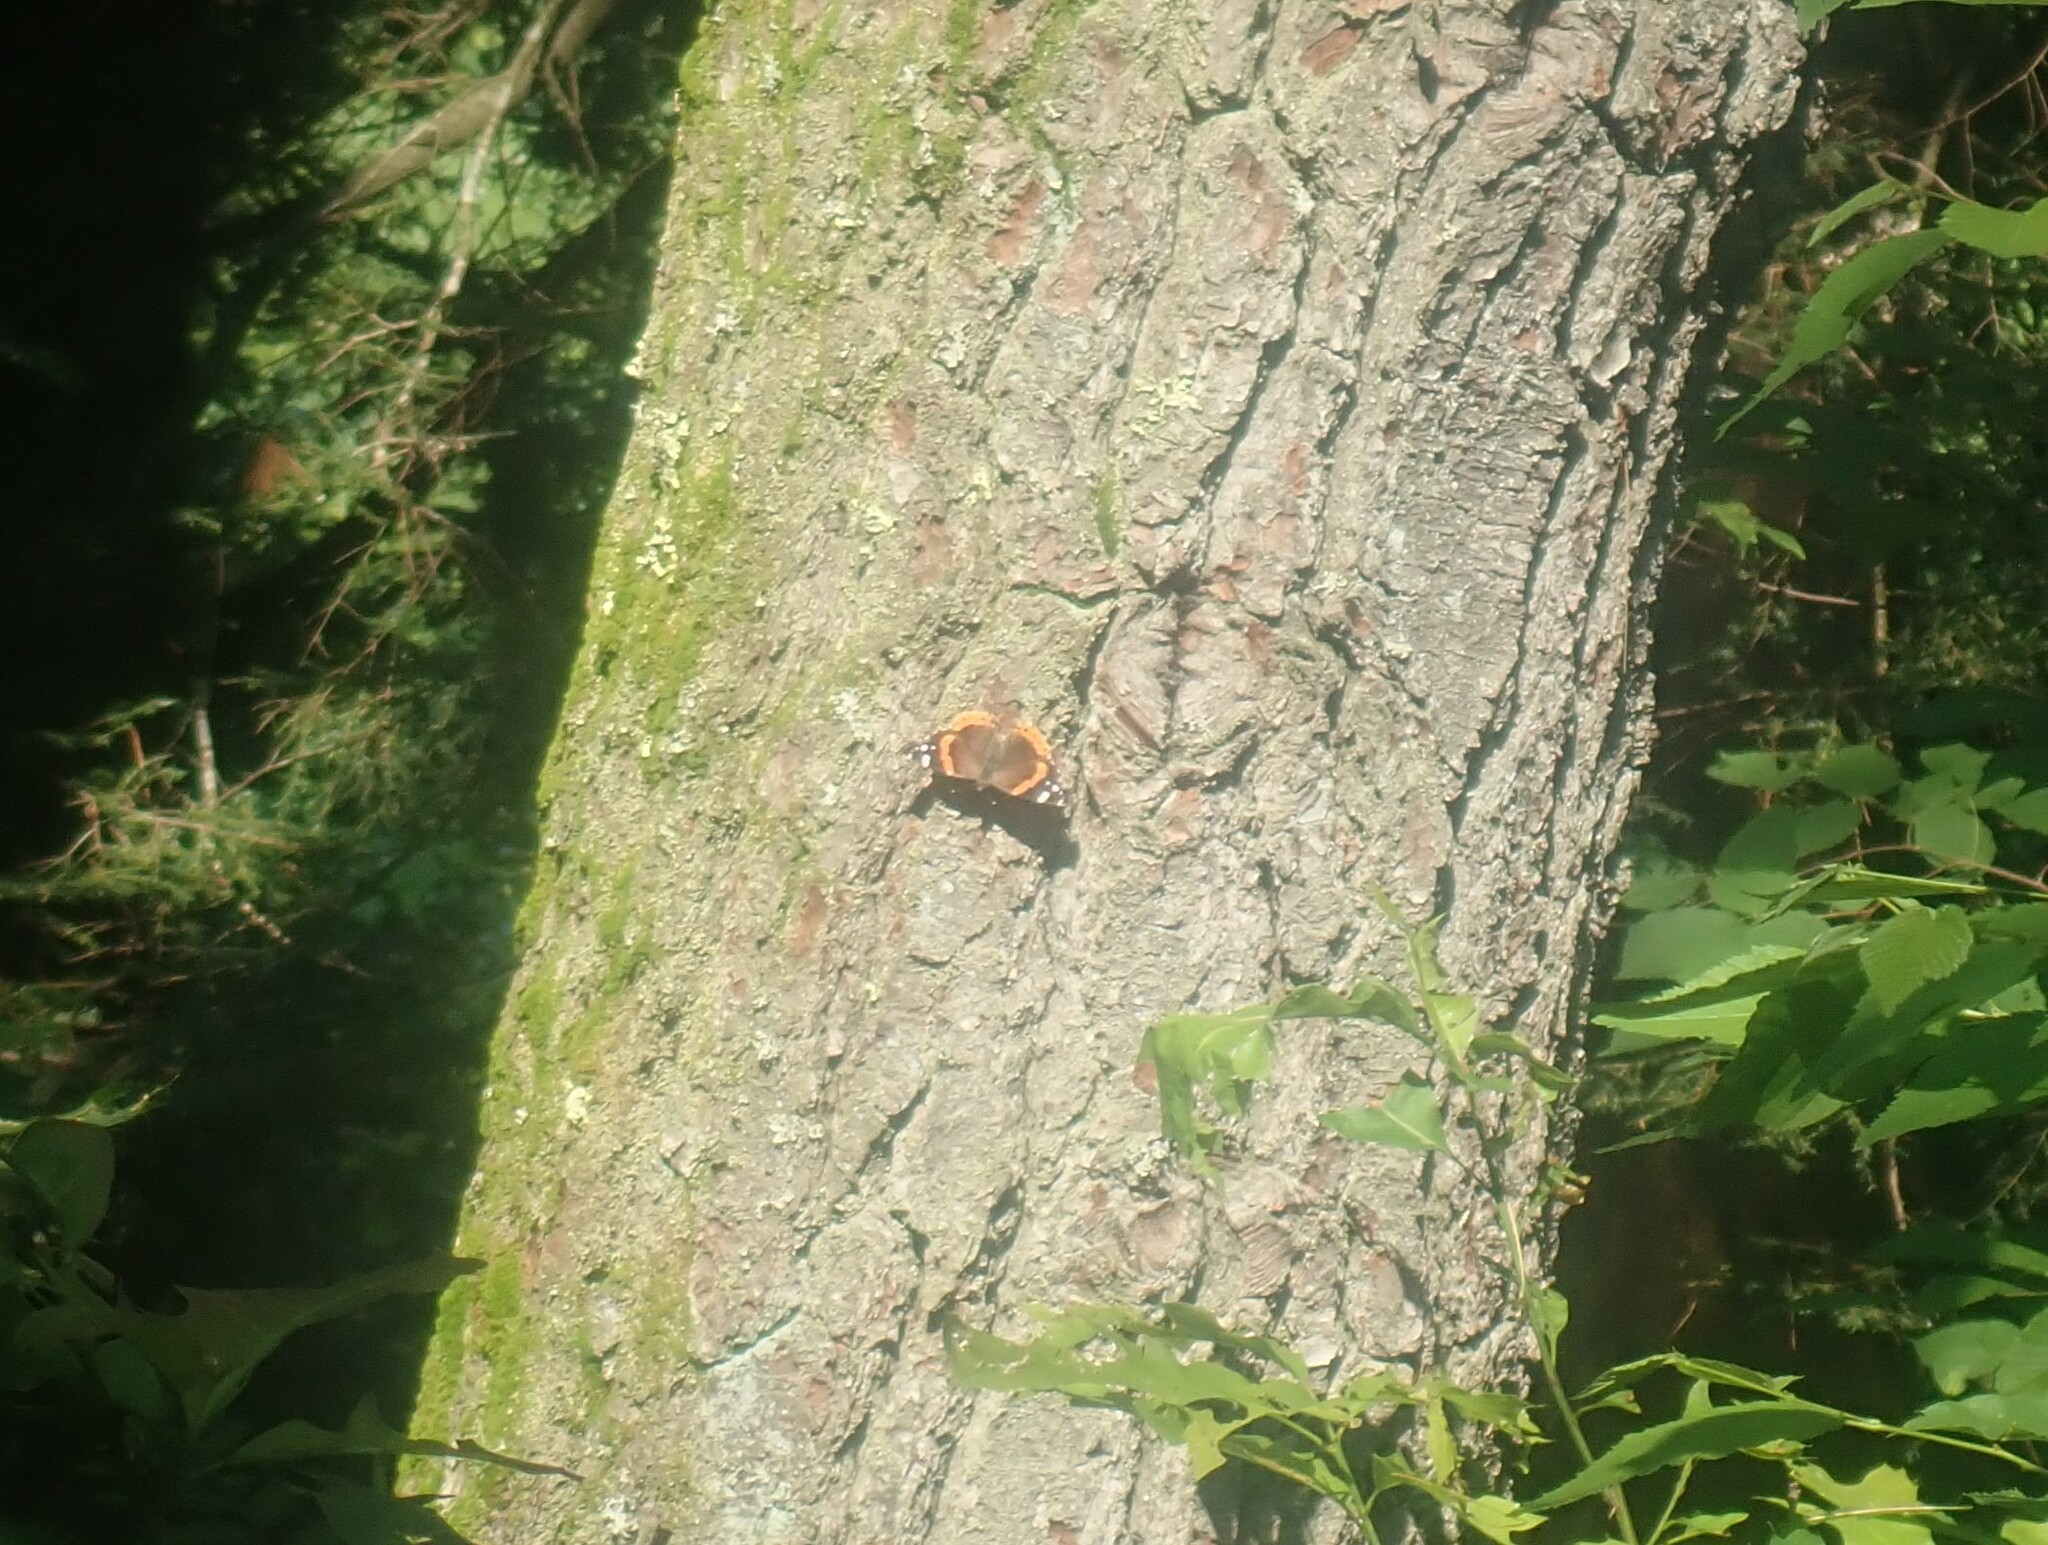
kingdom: Animalia
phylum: Arthropoda
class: Insecta
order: Lepidoptera
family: Nymphalidae
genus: Vanessa
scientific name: Vanessa atalanta
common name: Red admiral
